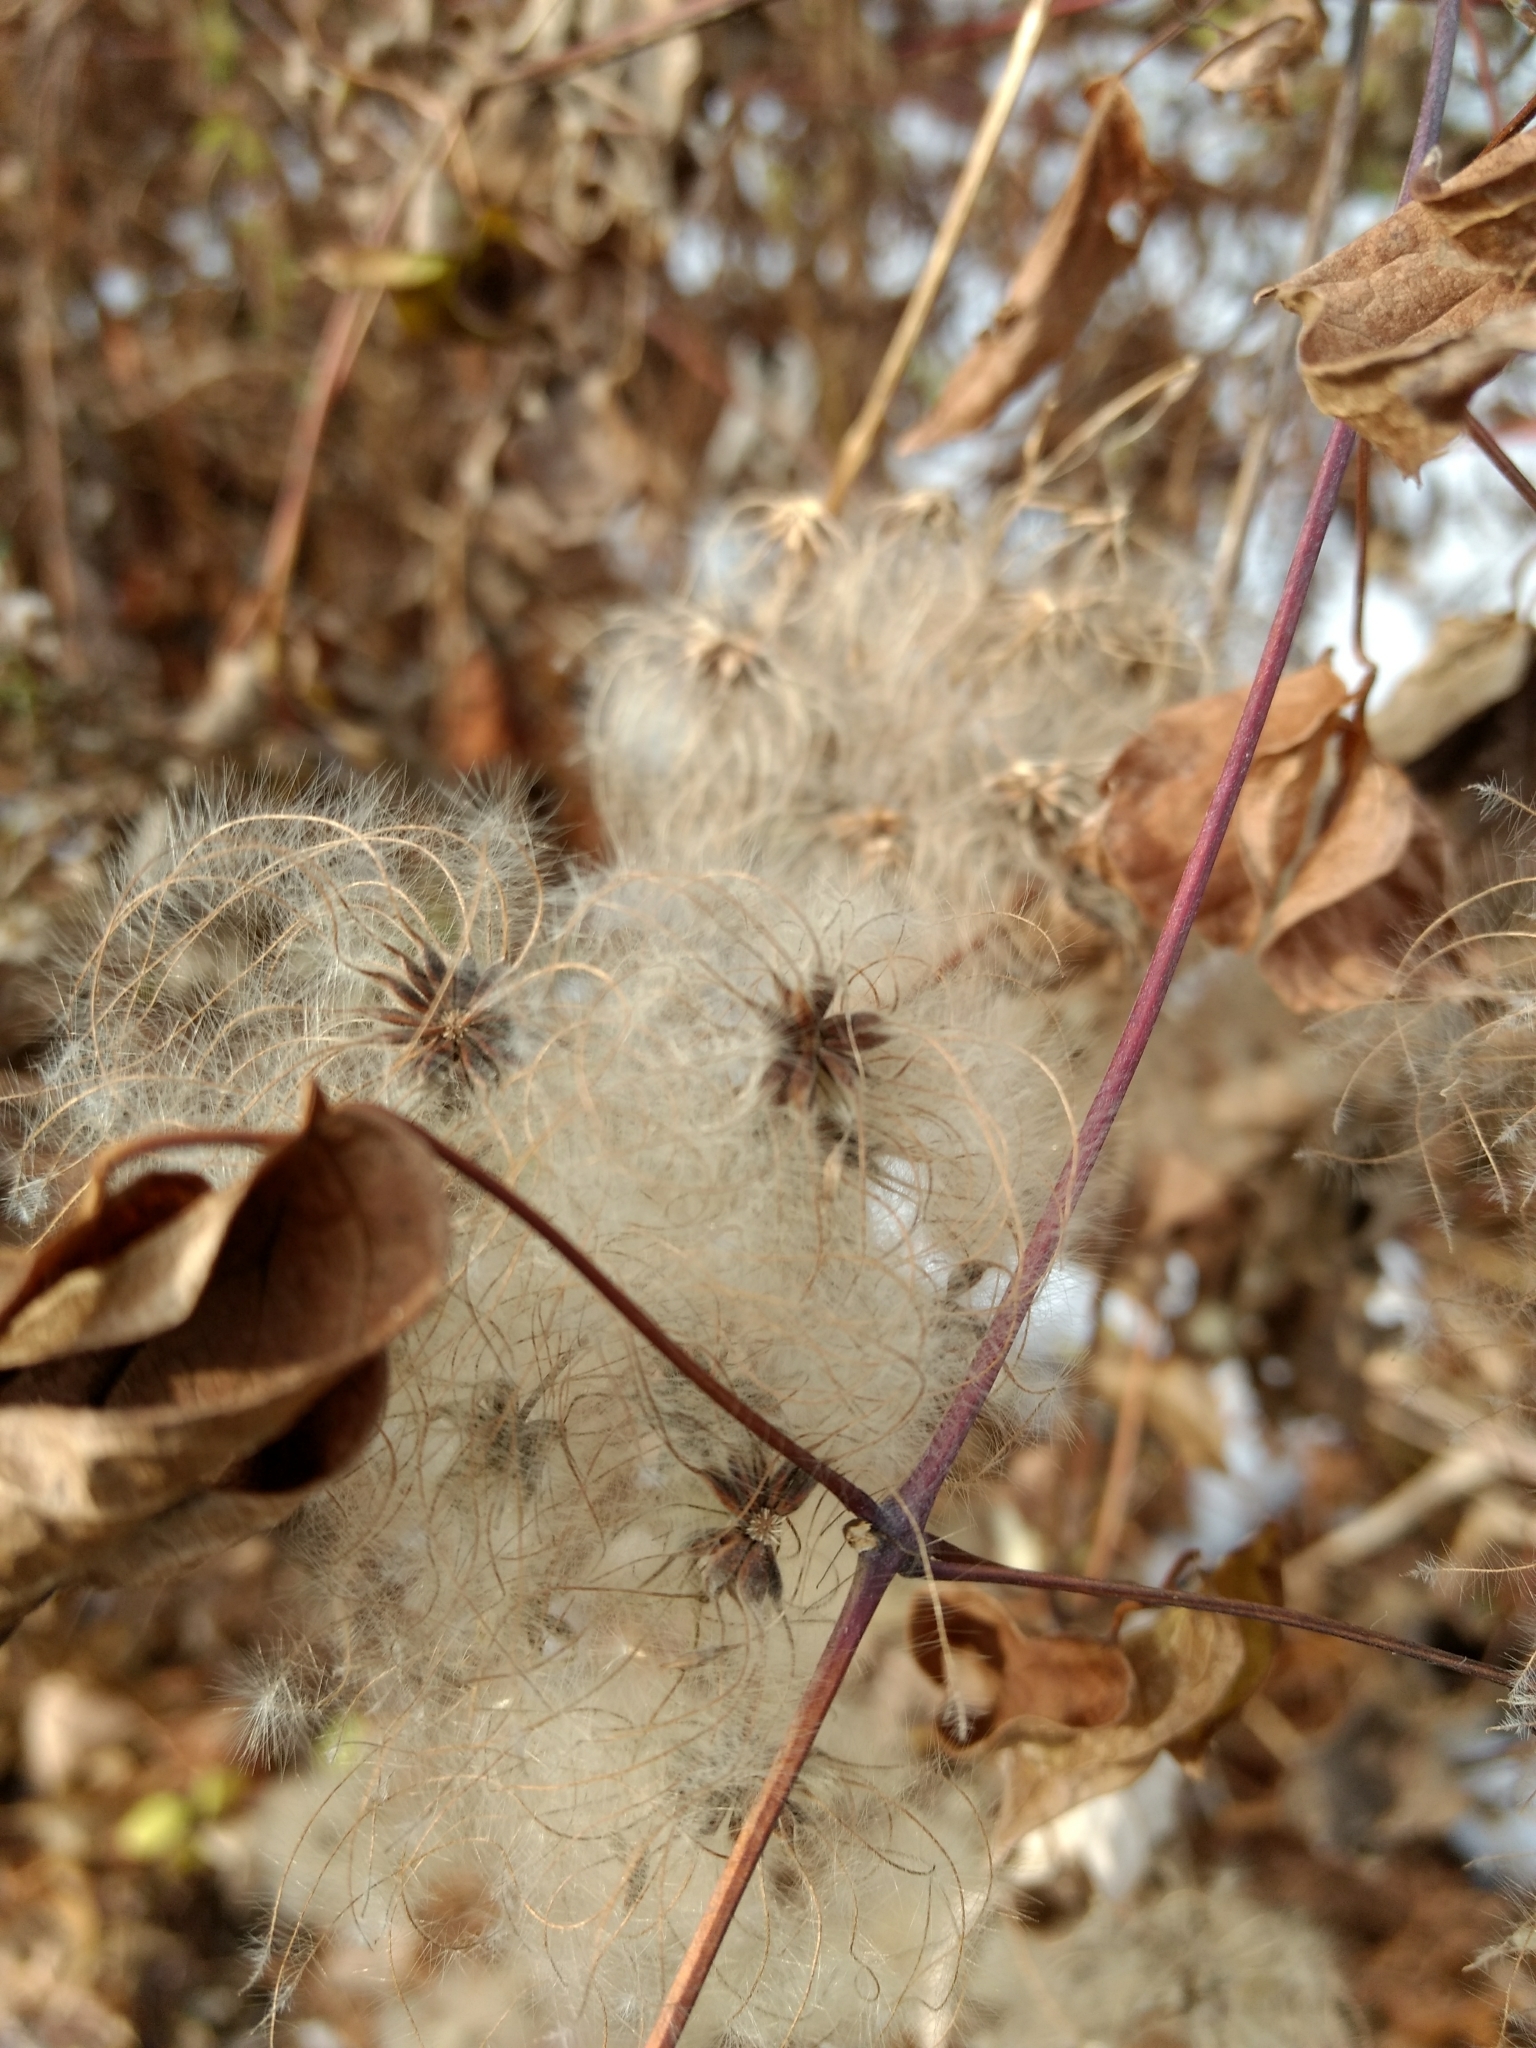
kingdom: Plantae
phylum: Tracheophyta
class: Magnoliopsida
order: Ranunculales
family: Ranunculaceae
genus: Clematis
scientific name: Clematis virginiana
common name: Virgin's-bower
